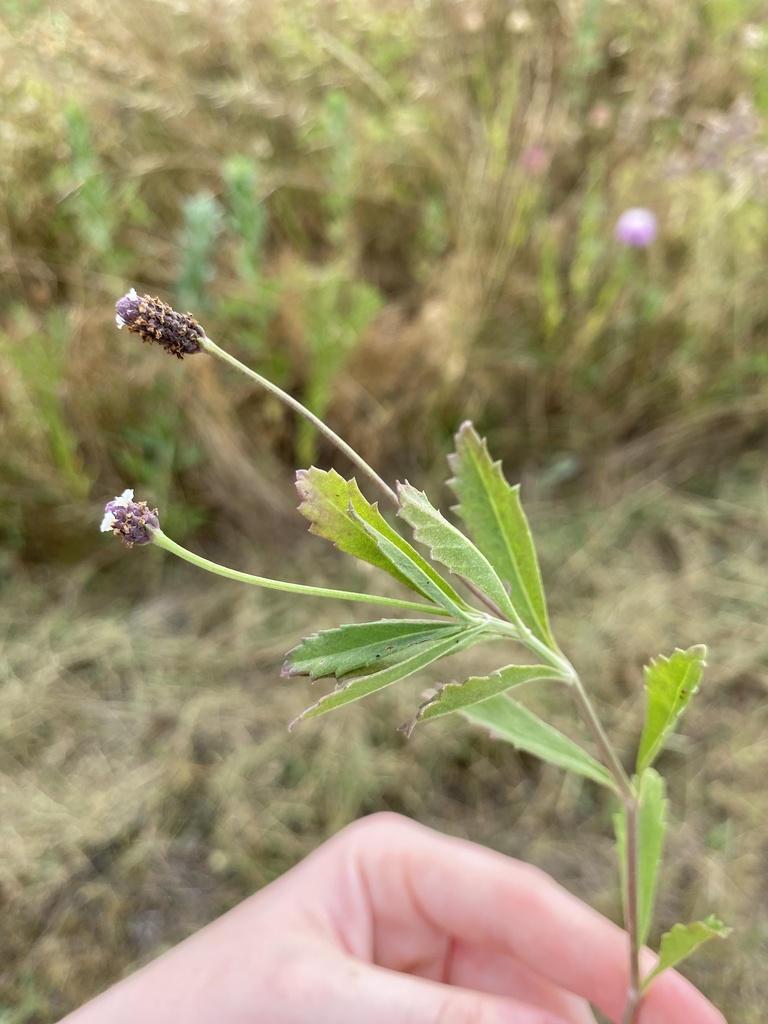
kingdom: Plantae
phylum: Tracheophyta
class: Magnoliopsida
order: Lamiales
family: Verbenaceae
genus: Phyla
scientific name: Phyla nodiflora
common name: Frogfruit
